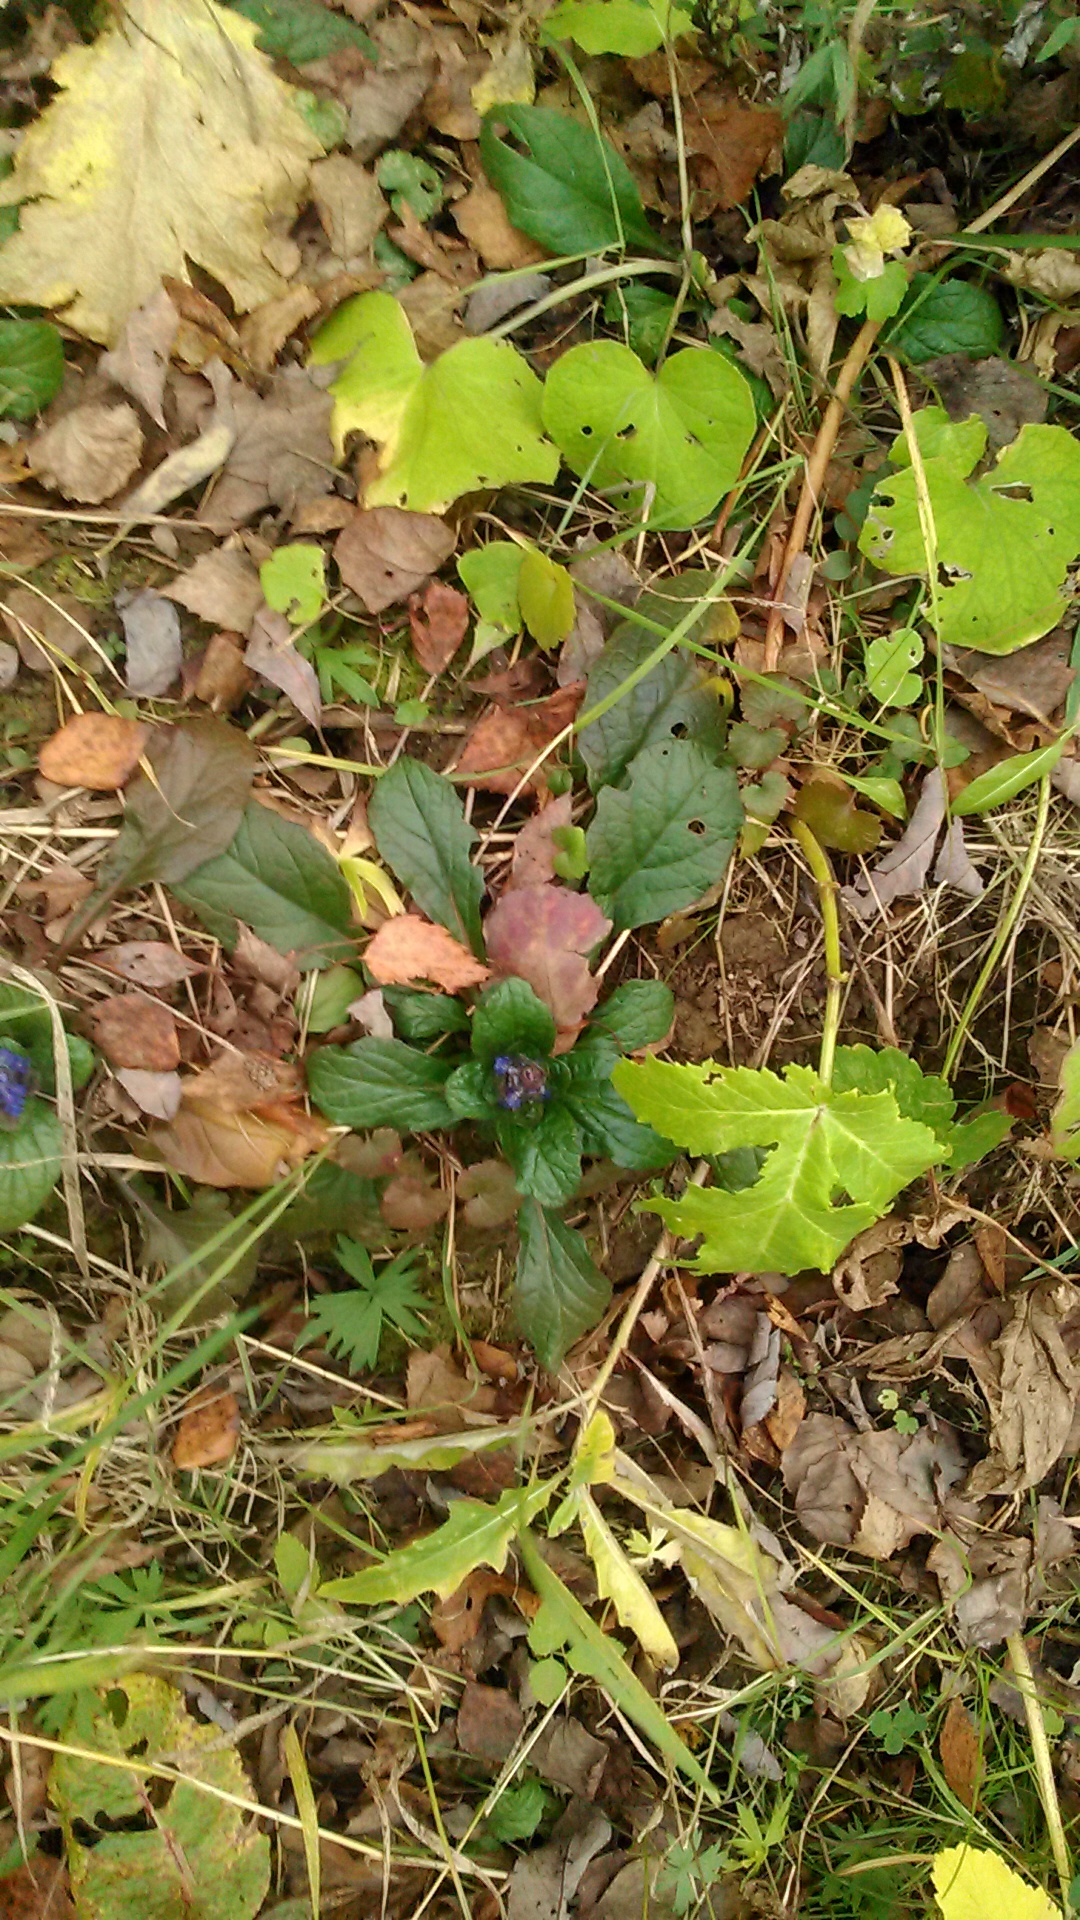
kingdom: Plantae
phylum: Tracheophyta
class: Magnoliopsida
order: Lamiales
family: Lamiaceae
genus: Ajuga
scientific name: Ajuga reptans
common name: Bugle
